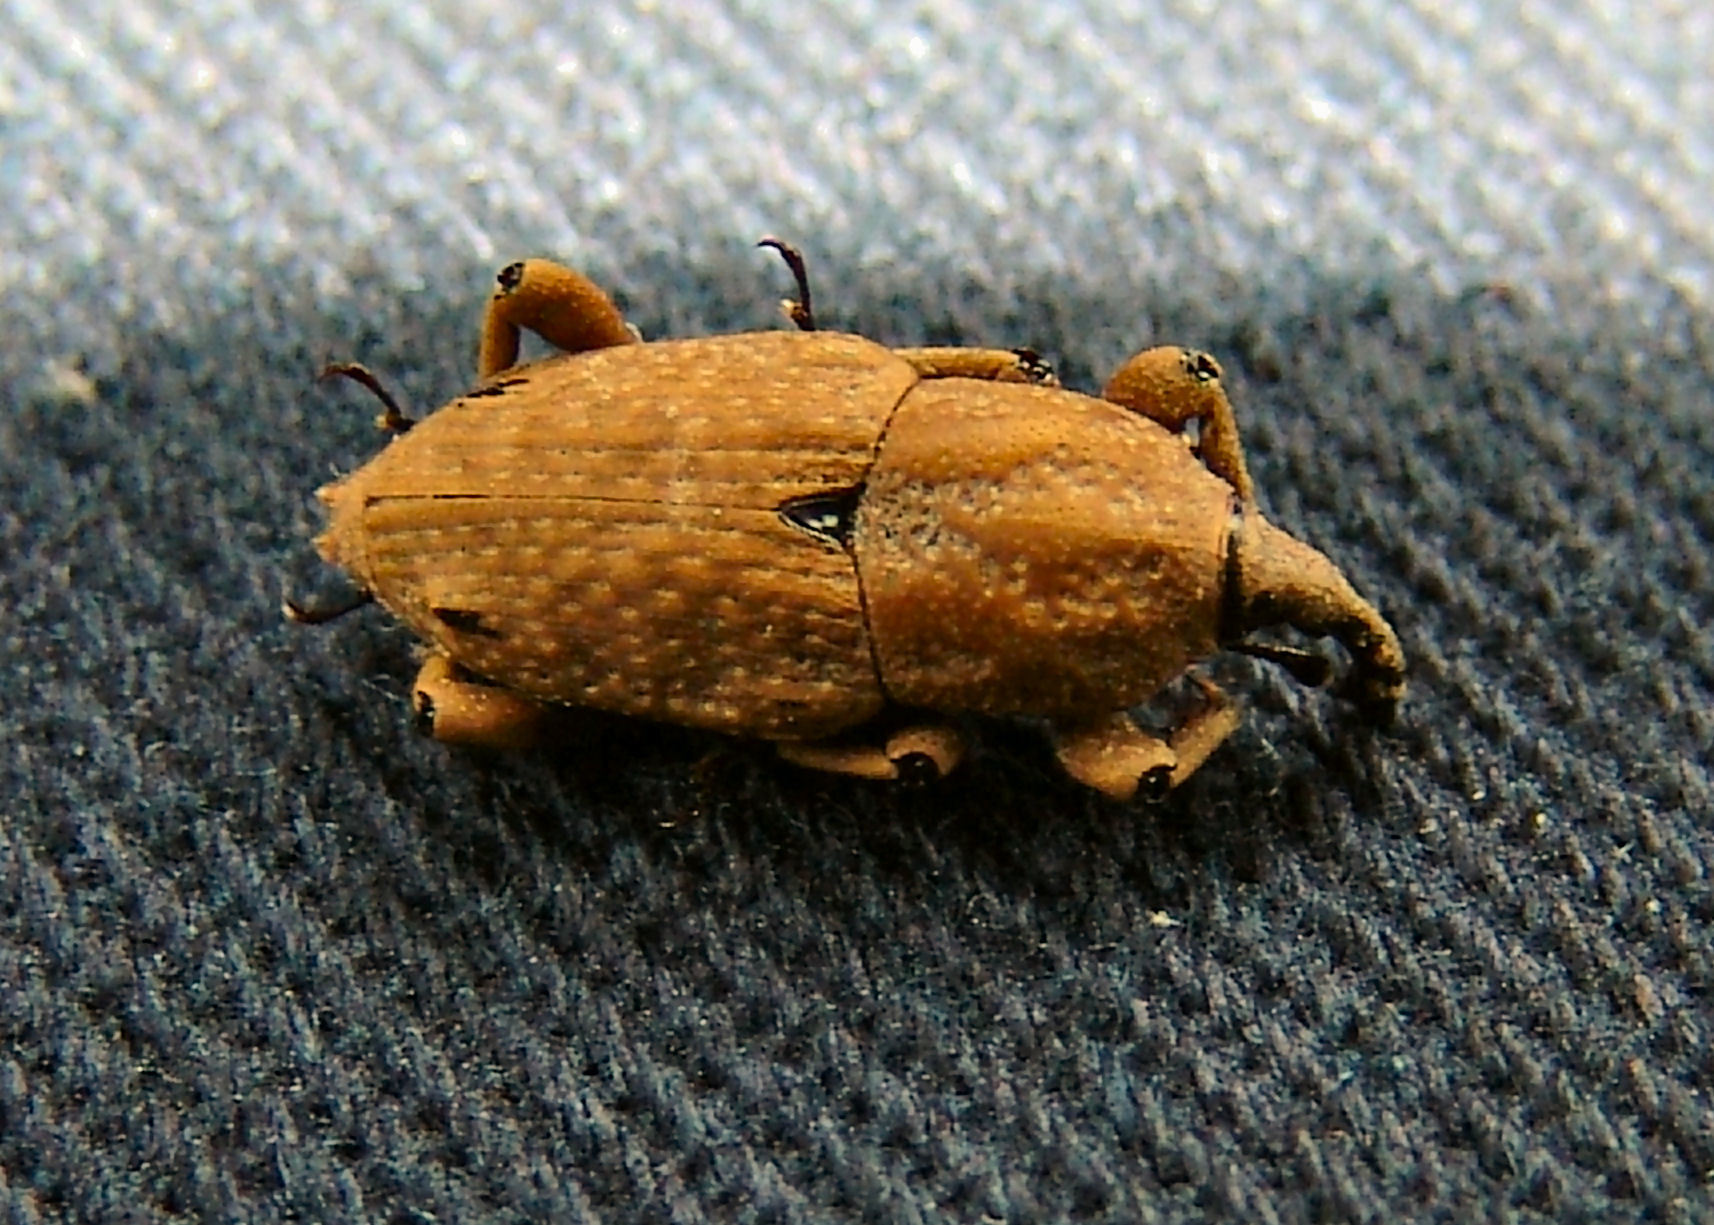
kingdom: Animalia
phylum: Arthropoda
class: Insecta
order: Coleoptera
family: Dryophthoridae
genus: Sphenophorus
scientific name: Sphenophorus callosus
